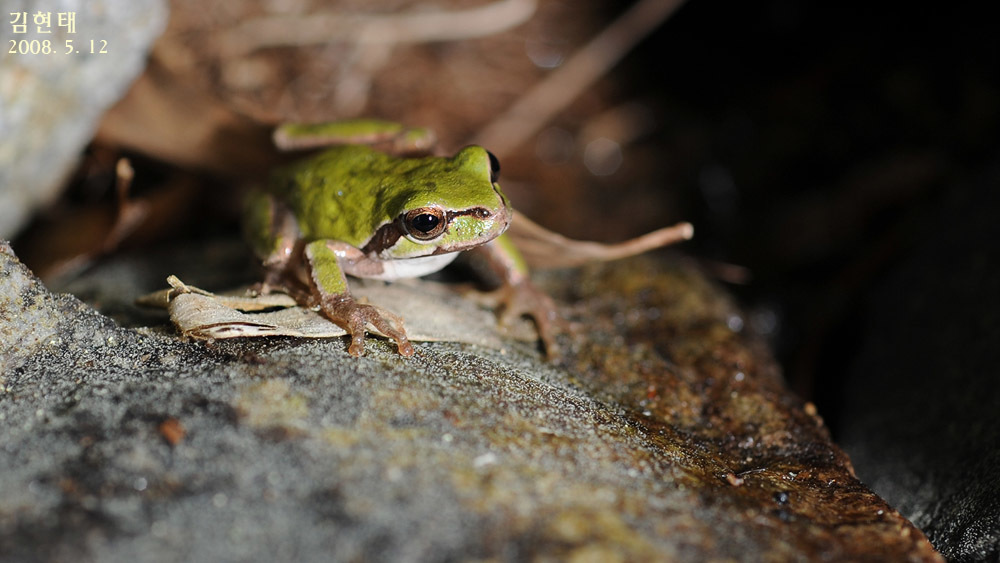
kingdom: Animalia
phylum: Chordata
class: Amphibia
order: Anura
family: Hylidae
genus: Dryophytes
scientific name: Dryophytes japonicus
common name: Japanese treefrog
